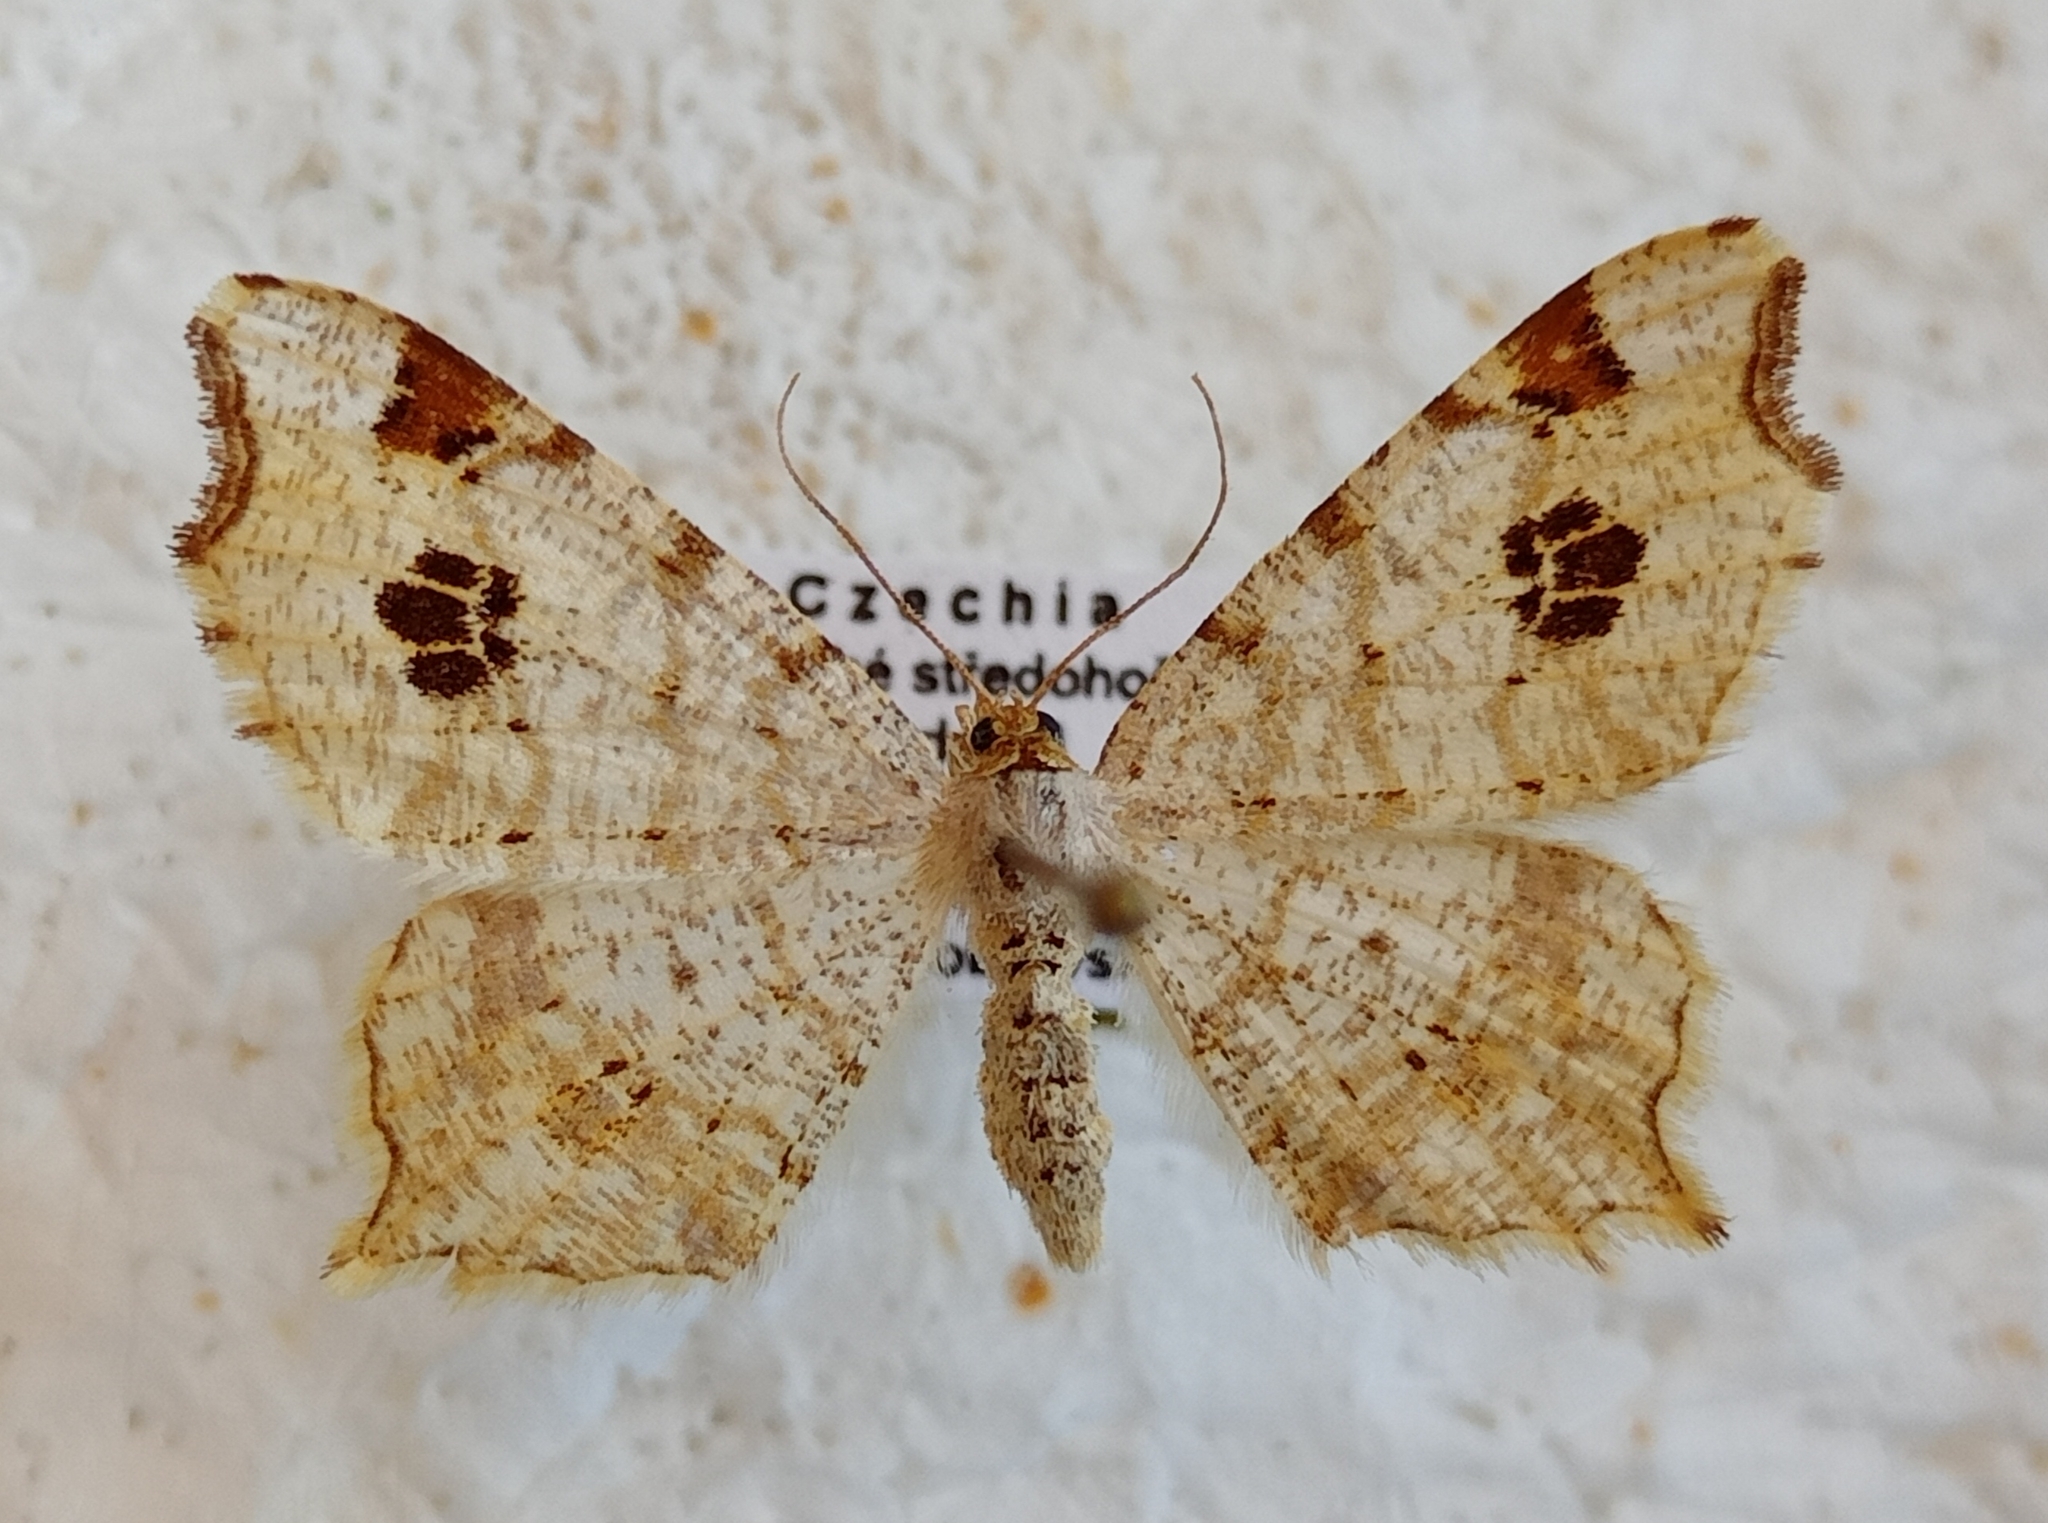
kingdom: Animalia
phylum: Arthropoda
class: Insecta
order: Lepidoptera
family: Geometridae
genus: Macaria
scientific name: Macaria notata
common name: Peacock moth
